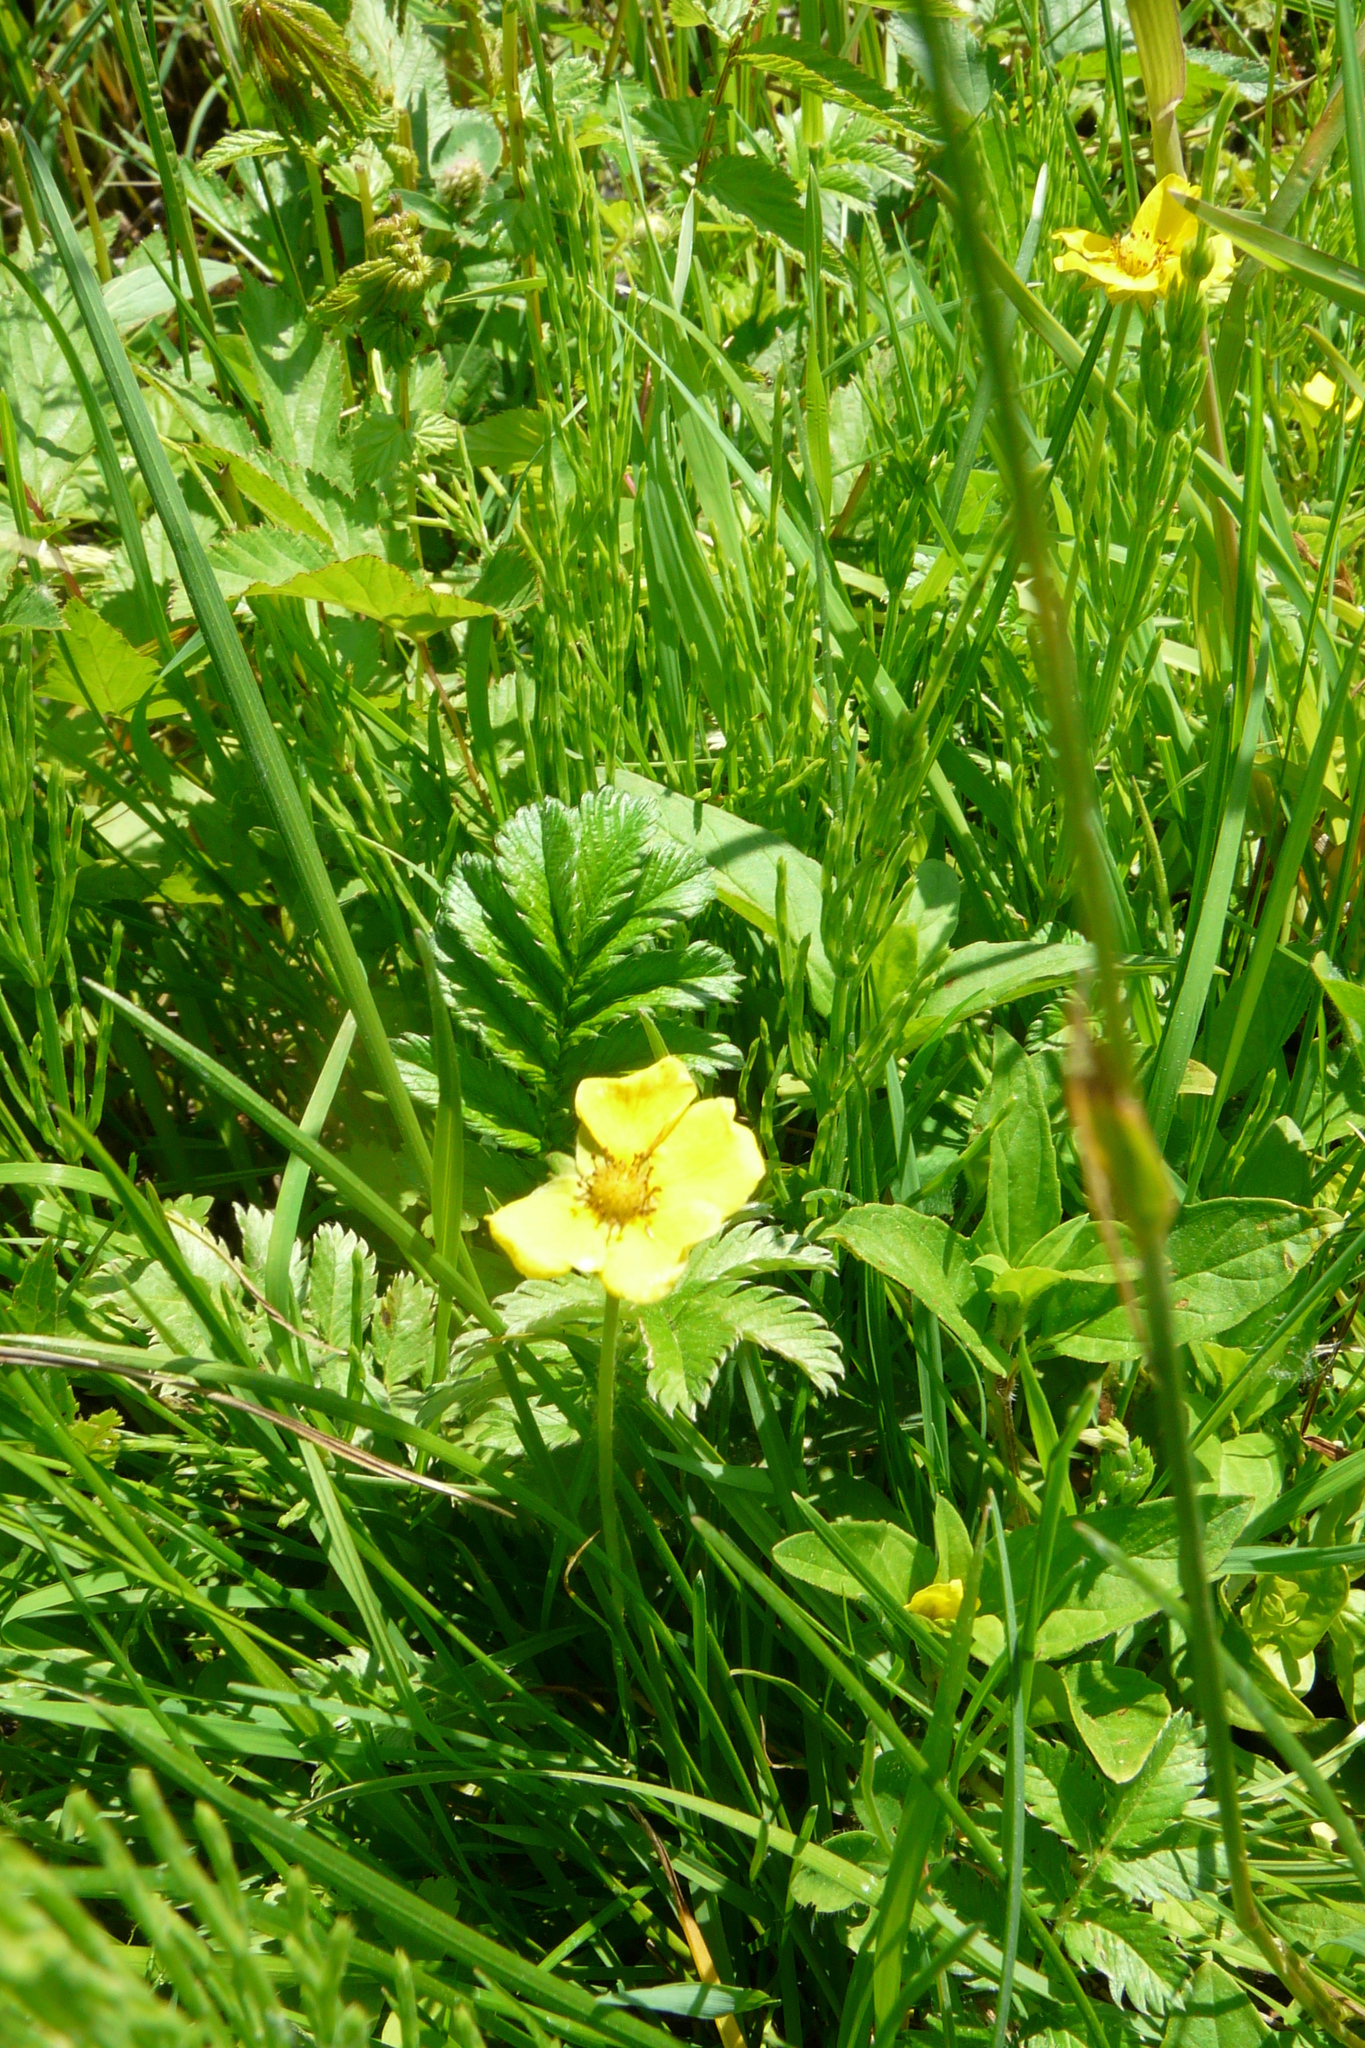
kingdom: Plantae
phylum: Tracheophyta
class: Magnoliopsida
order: Rosales
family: Rosaceae
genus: Argentina
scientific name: Argentina anserina
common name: Common silverweed
